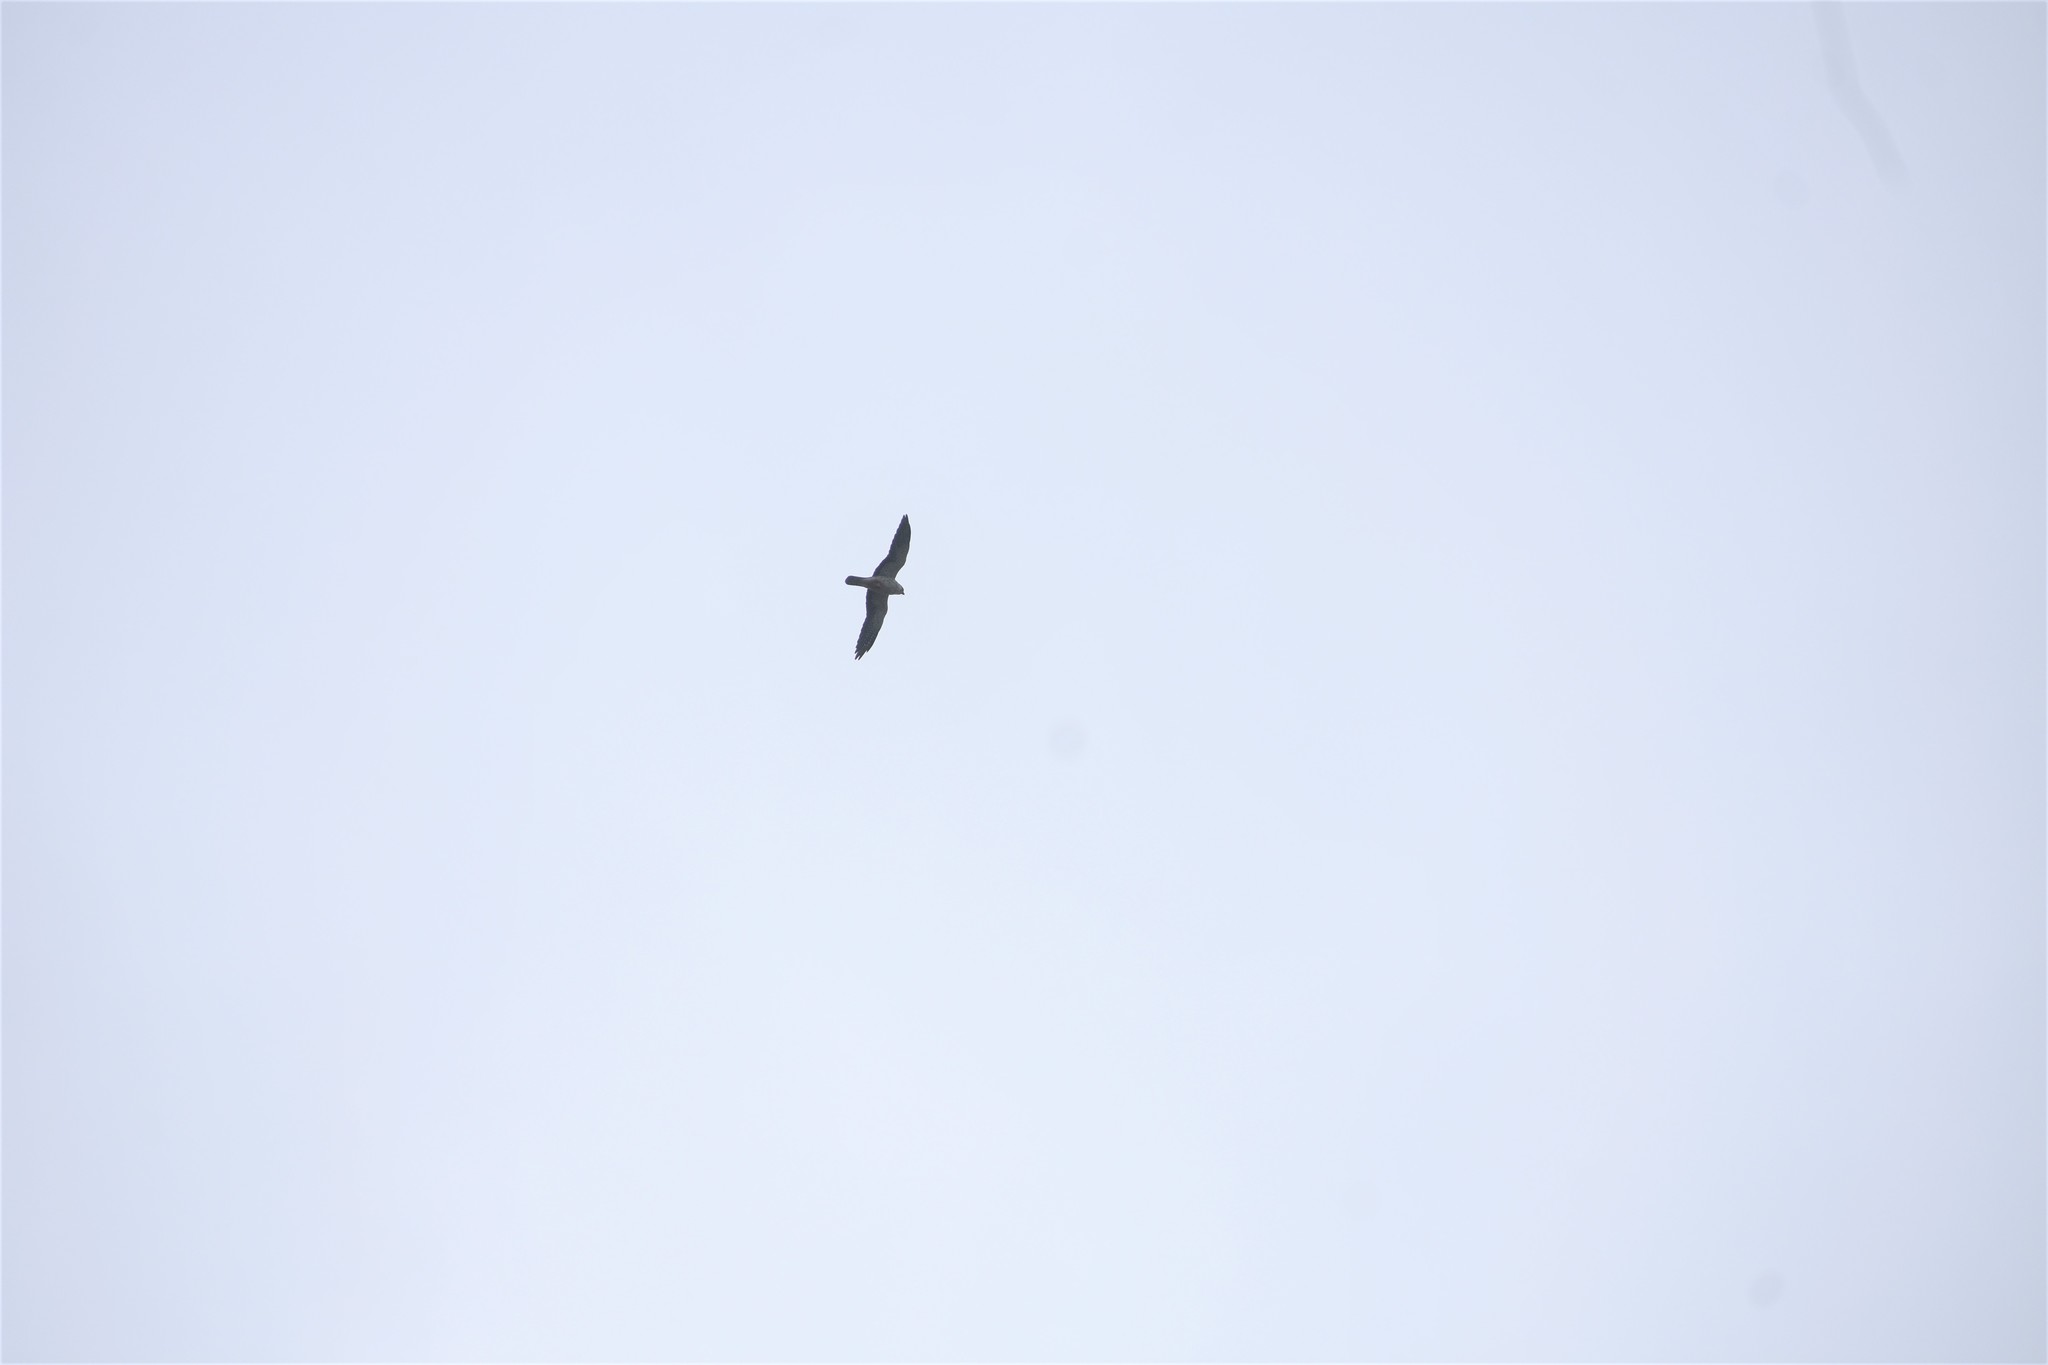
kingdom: Animalia
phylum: Chordata
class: Aves
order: Falconiformes
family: Falconidae
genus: Falco
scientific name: Falco amurensis
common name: Amur falcon
